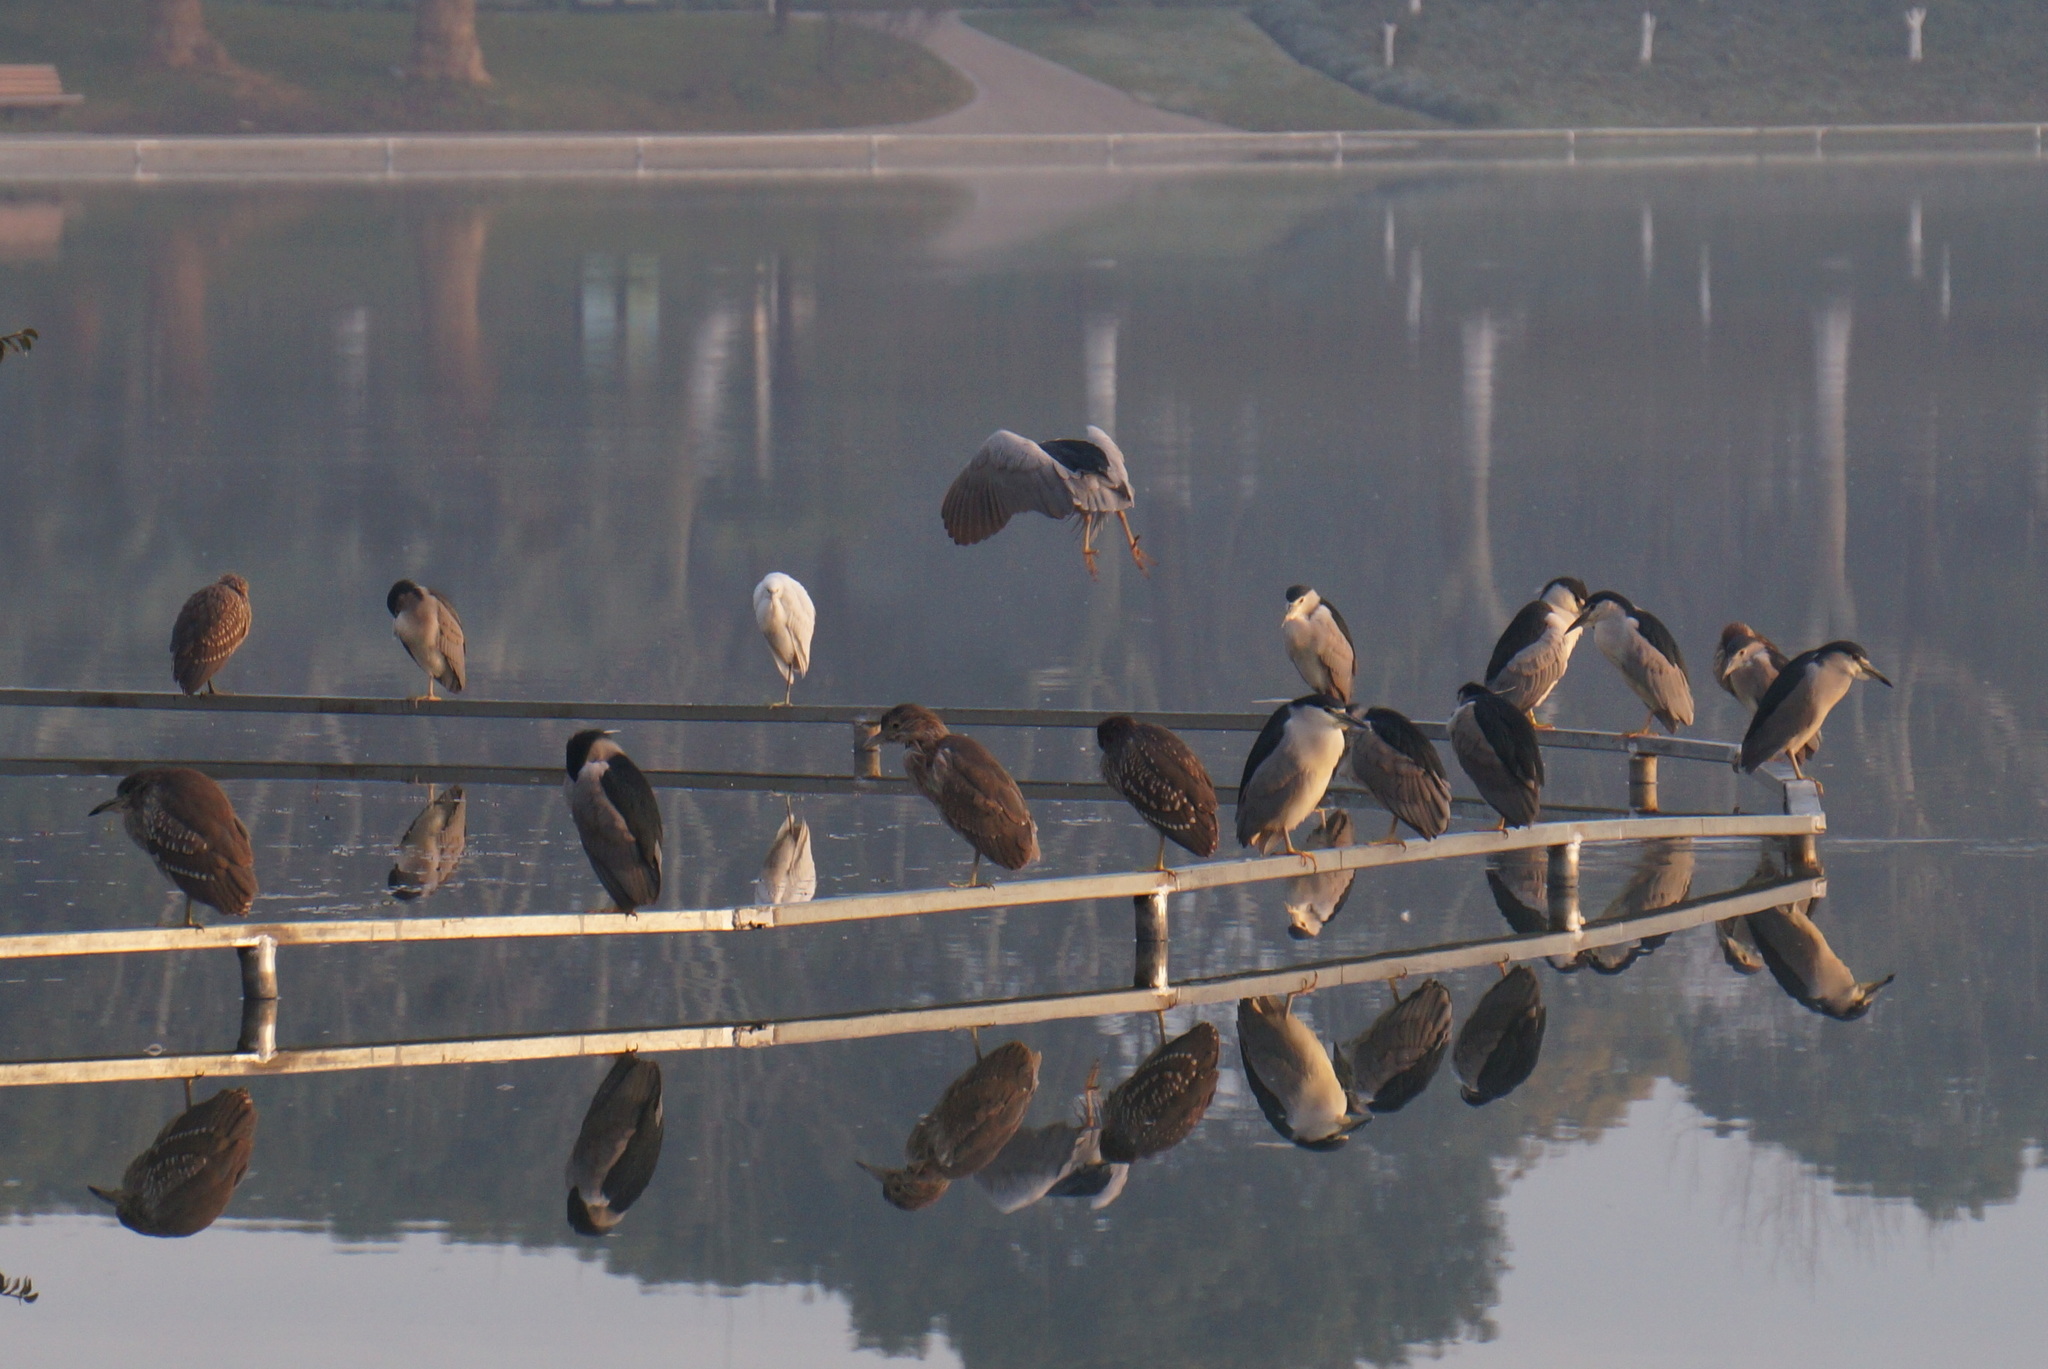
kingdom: Animalia
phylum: Chordata
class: Aves
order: Pelecaniformes
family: Ardeidae
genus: Nycticorax
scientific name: Nycticorax nycticorax
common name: Black-crowned night heron
